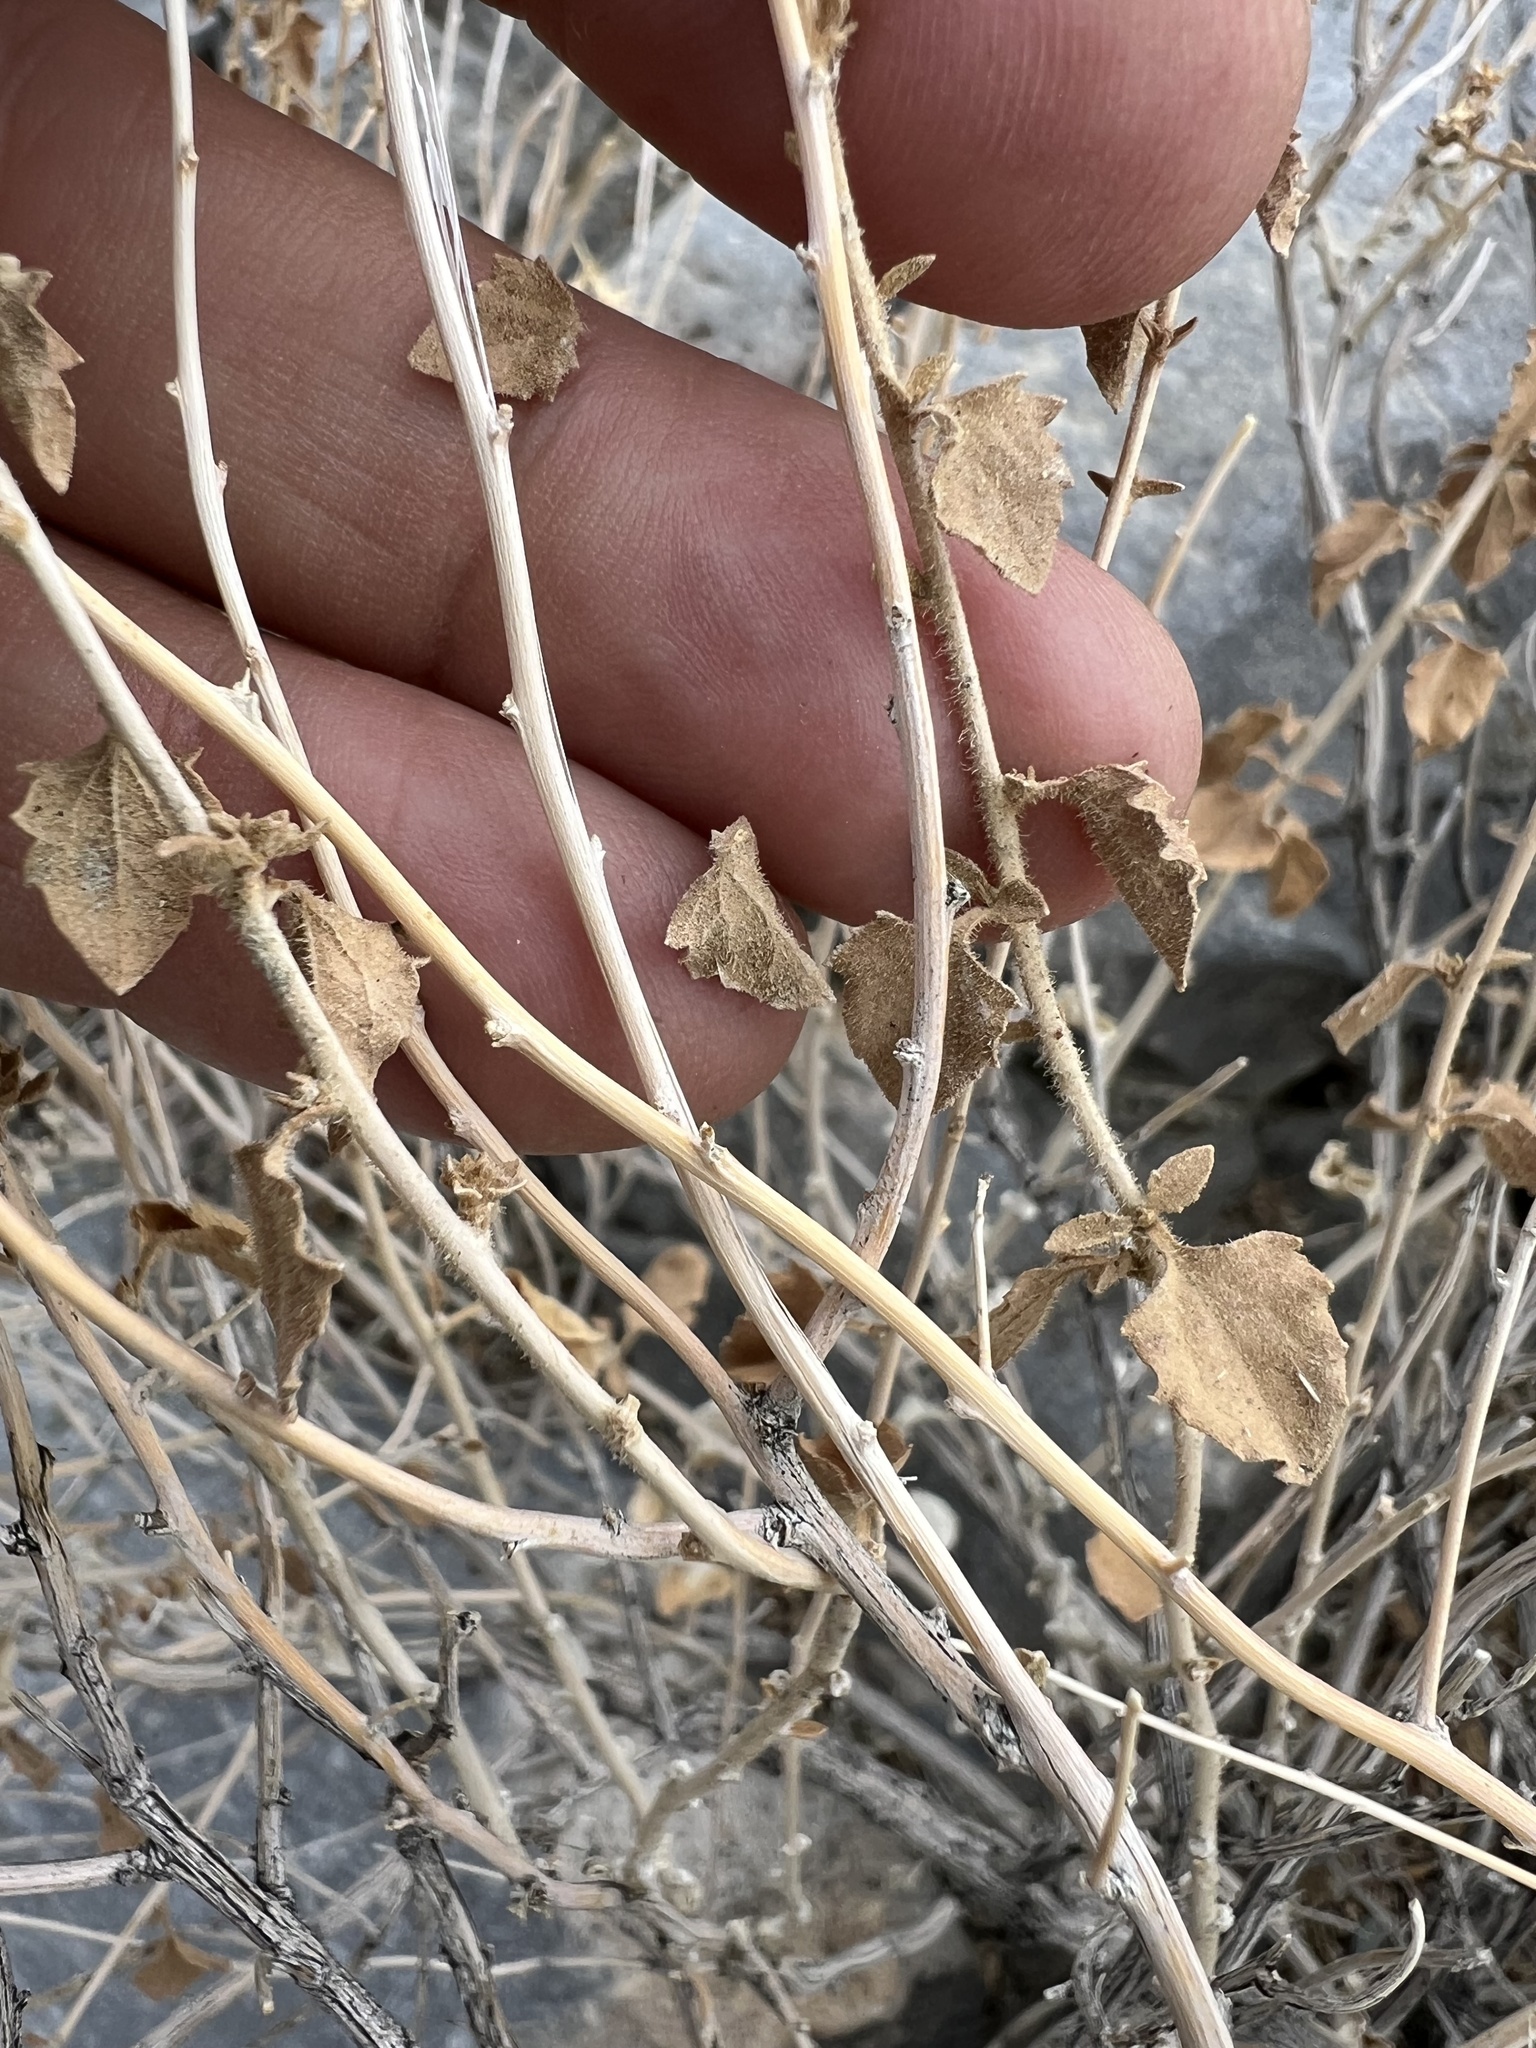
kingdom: Plantae
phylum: Tracheophyta
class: Magnoliopsida
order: Asterales
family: Asteraceae
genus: Brickellia
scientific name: Brickellia microphylla
